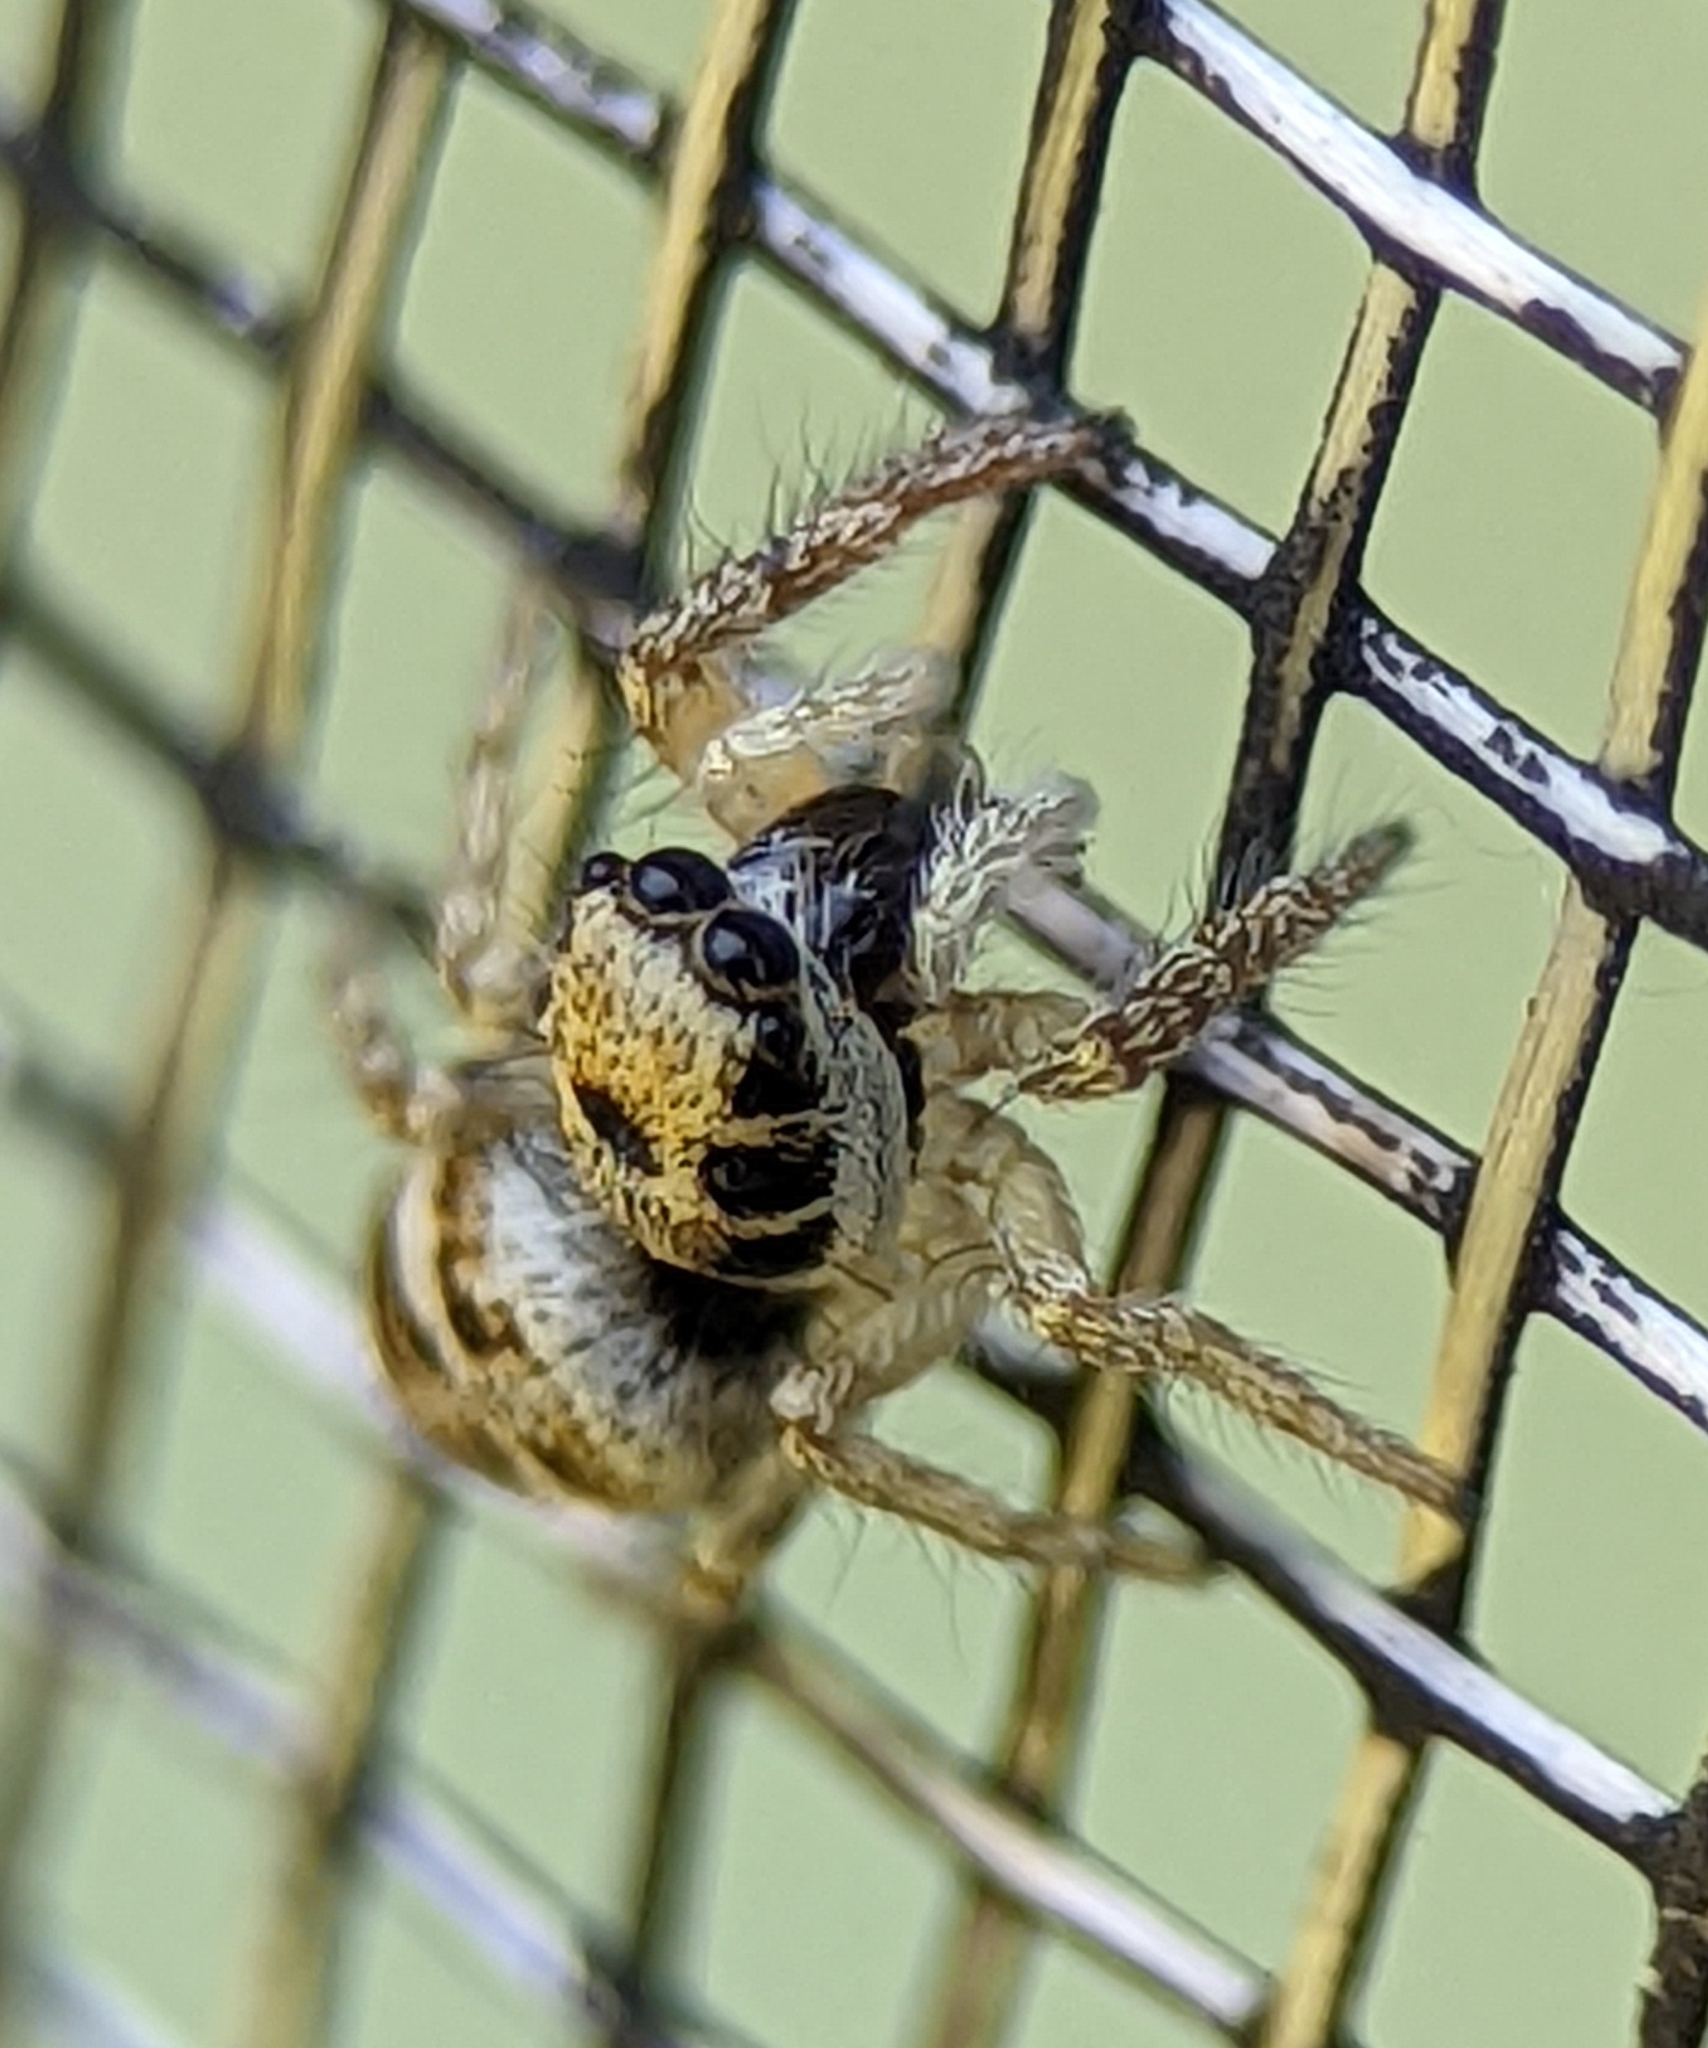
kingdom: Animalia
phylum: Arthropoda
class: Arachnida
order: Araneae
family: Salticidae
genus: Salticus
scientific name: Salticus scenicus
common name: Zebra jumper
